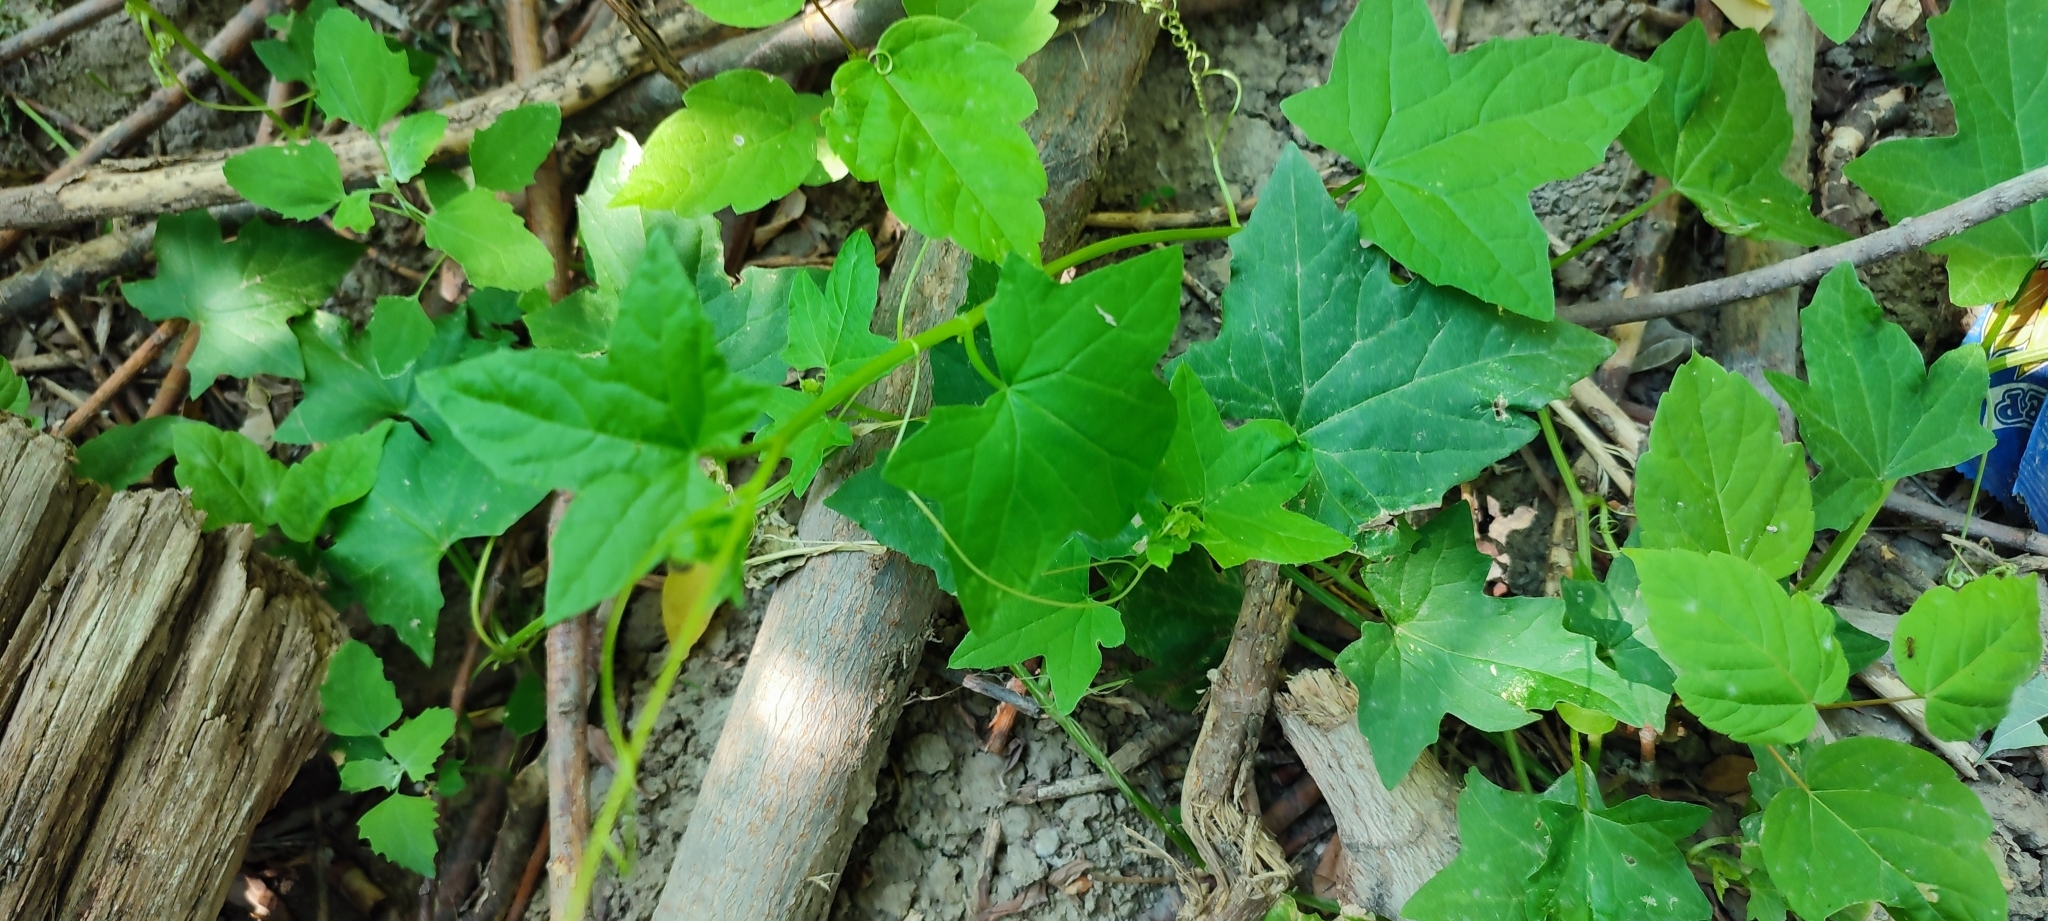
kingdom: Plantae
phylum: Tracheophyta
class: Magnoliopsida
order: Cucurbitales
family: Cucurbitaceae
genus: Echinocystis
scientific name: Echinocystis lobata
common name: Wild cucumber
